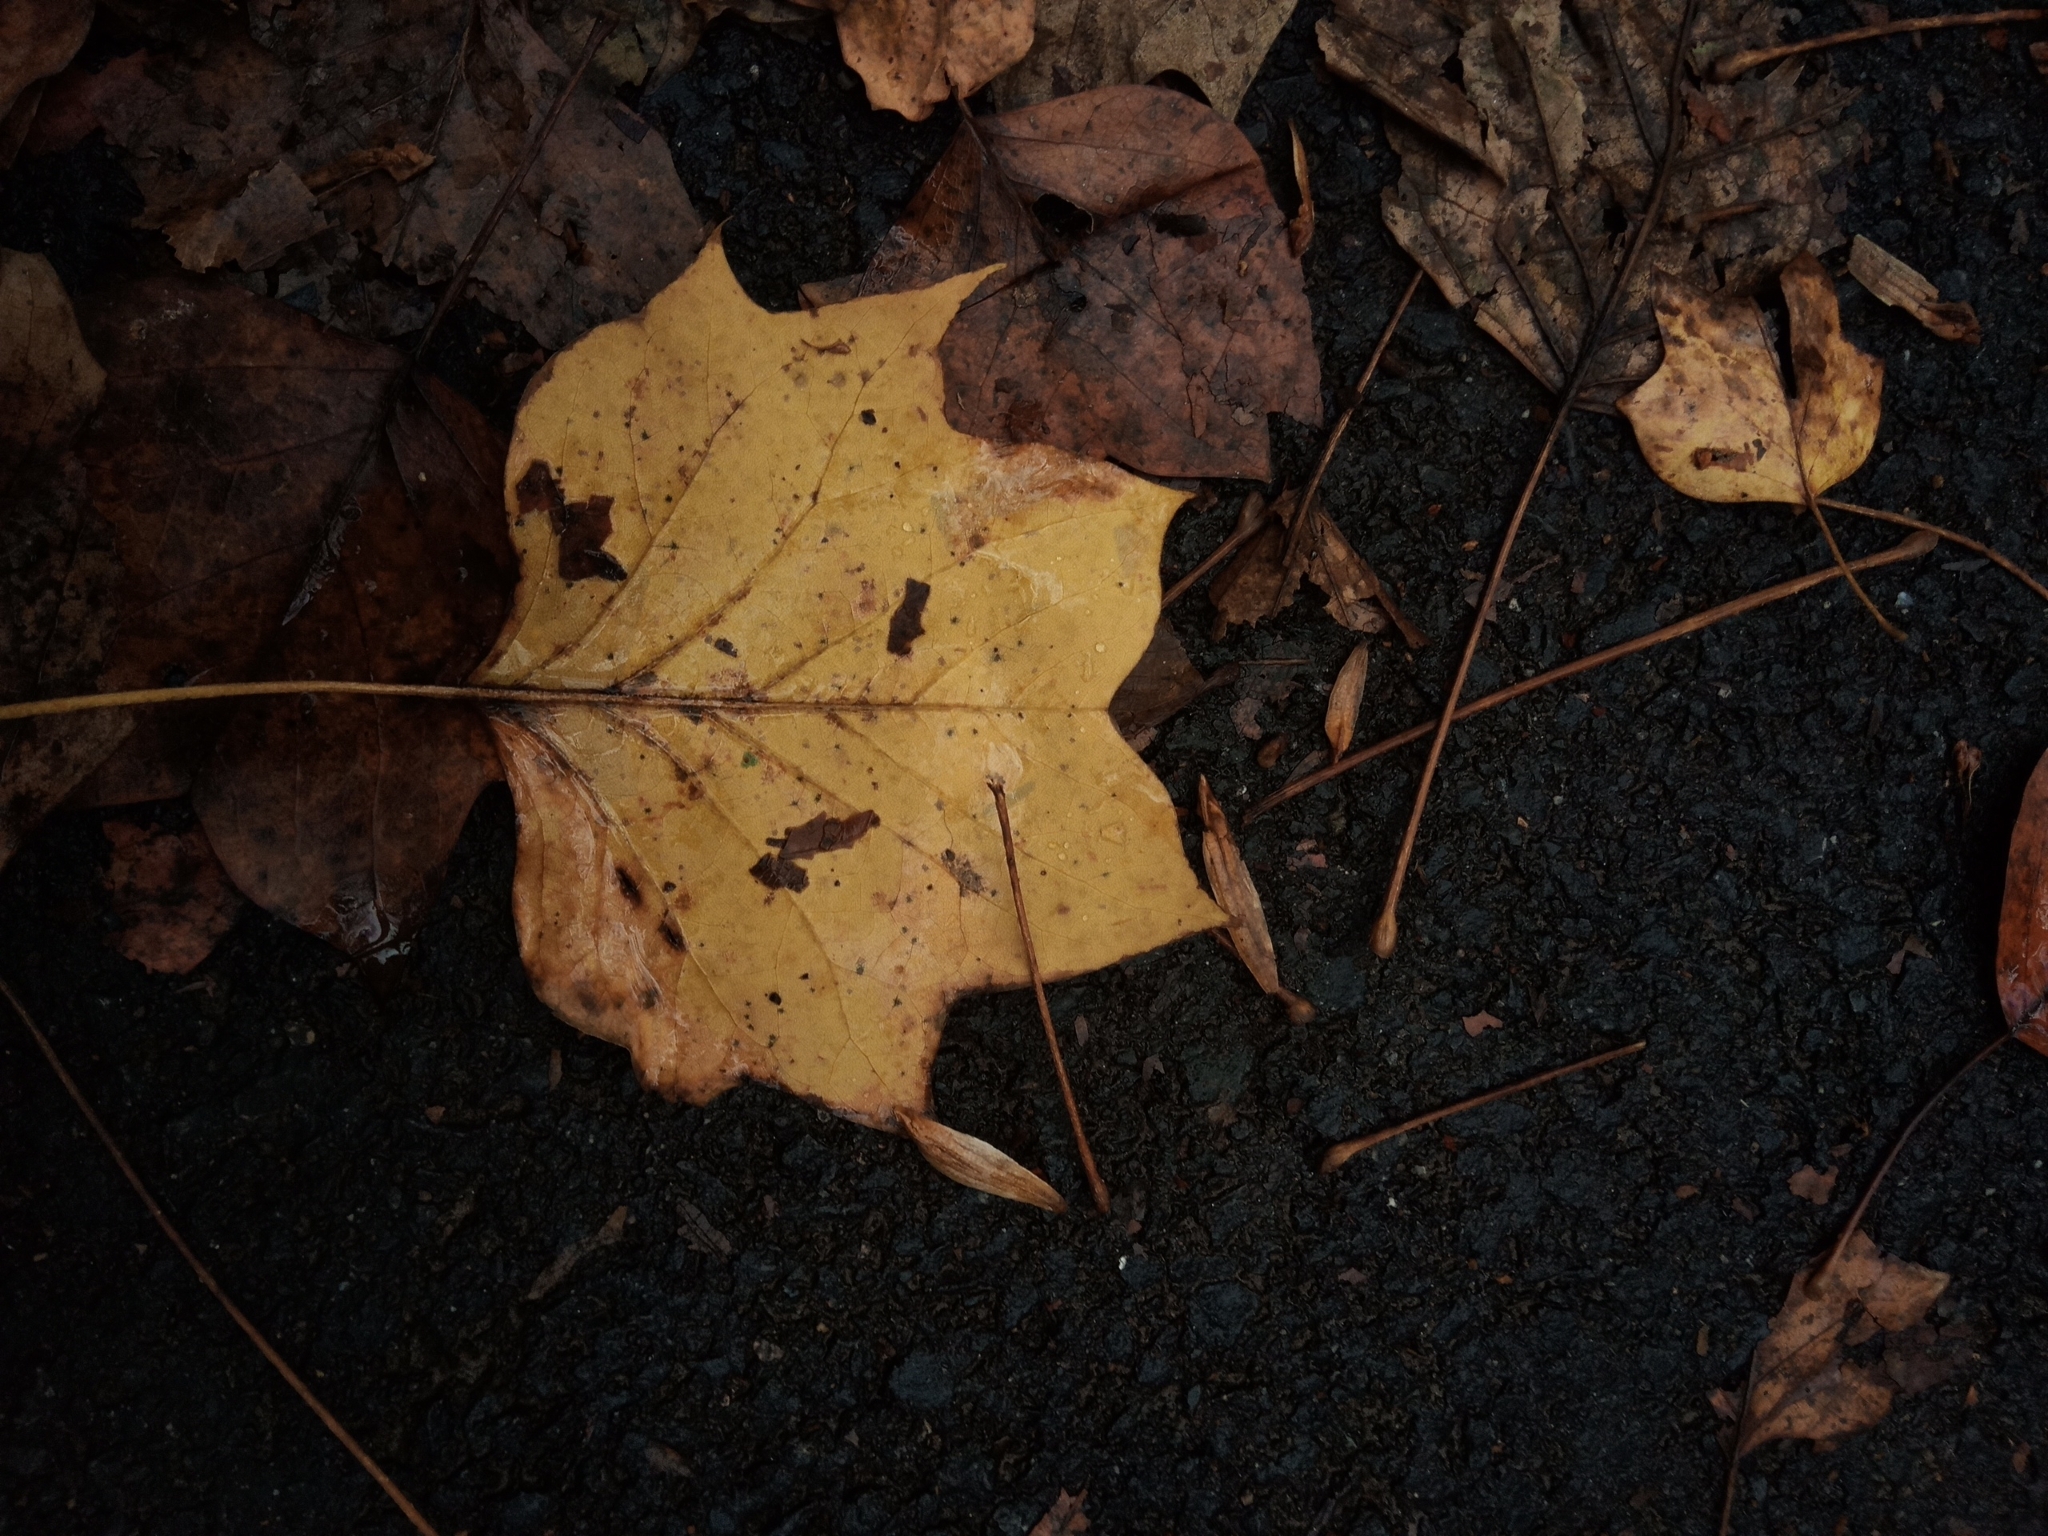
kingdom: Plantae
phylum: Tracheophyta
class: Magnoliopsida
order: Magnoliales
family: Magnoliaceae
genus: Liriodendron
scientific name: Liriodendron tulipifera
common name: Tulip tree
